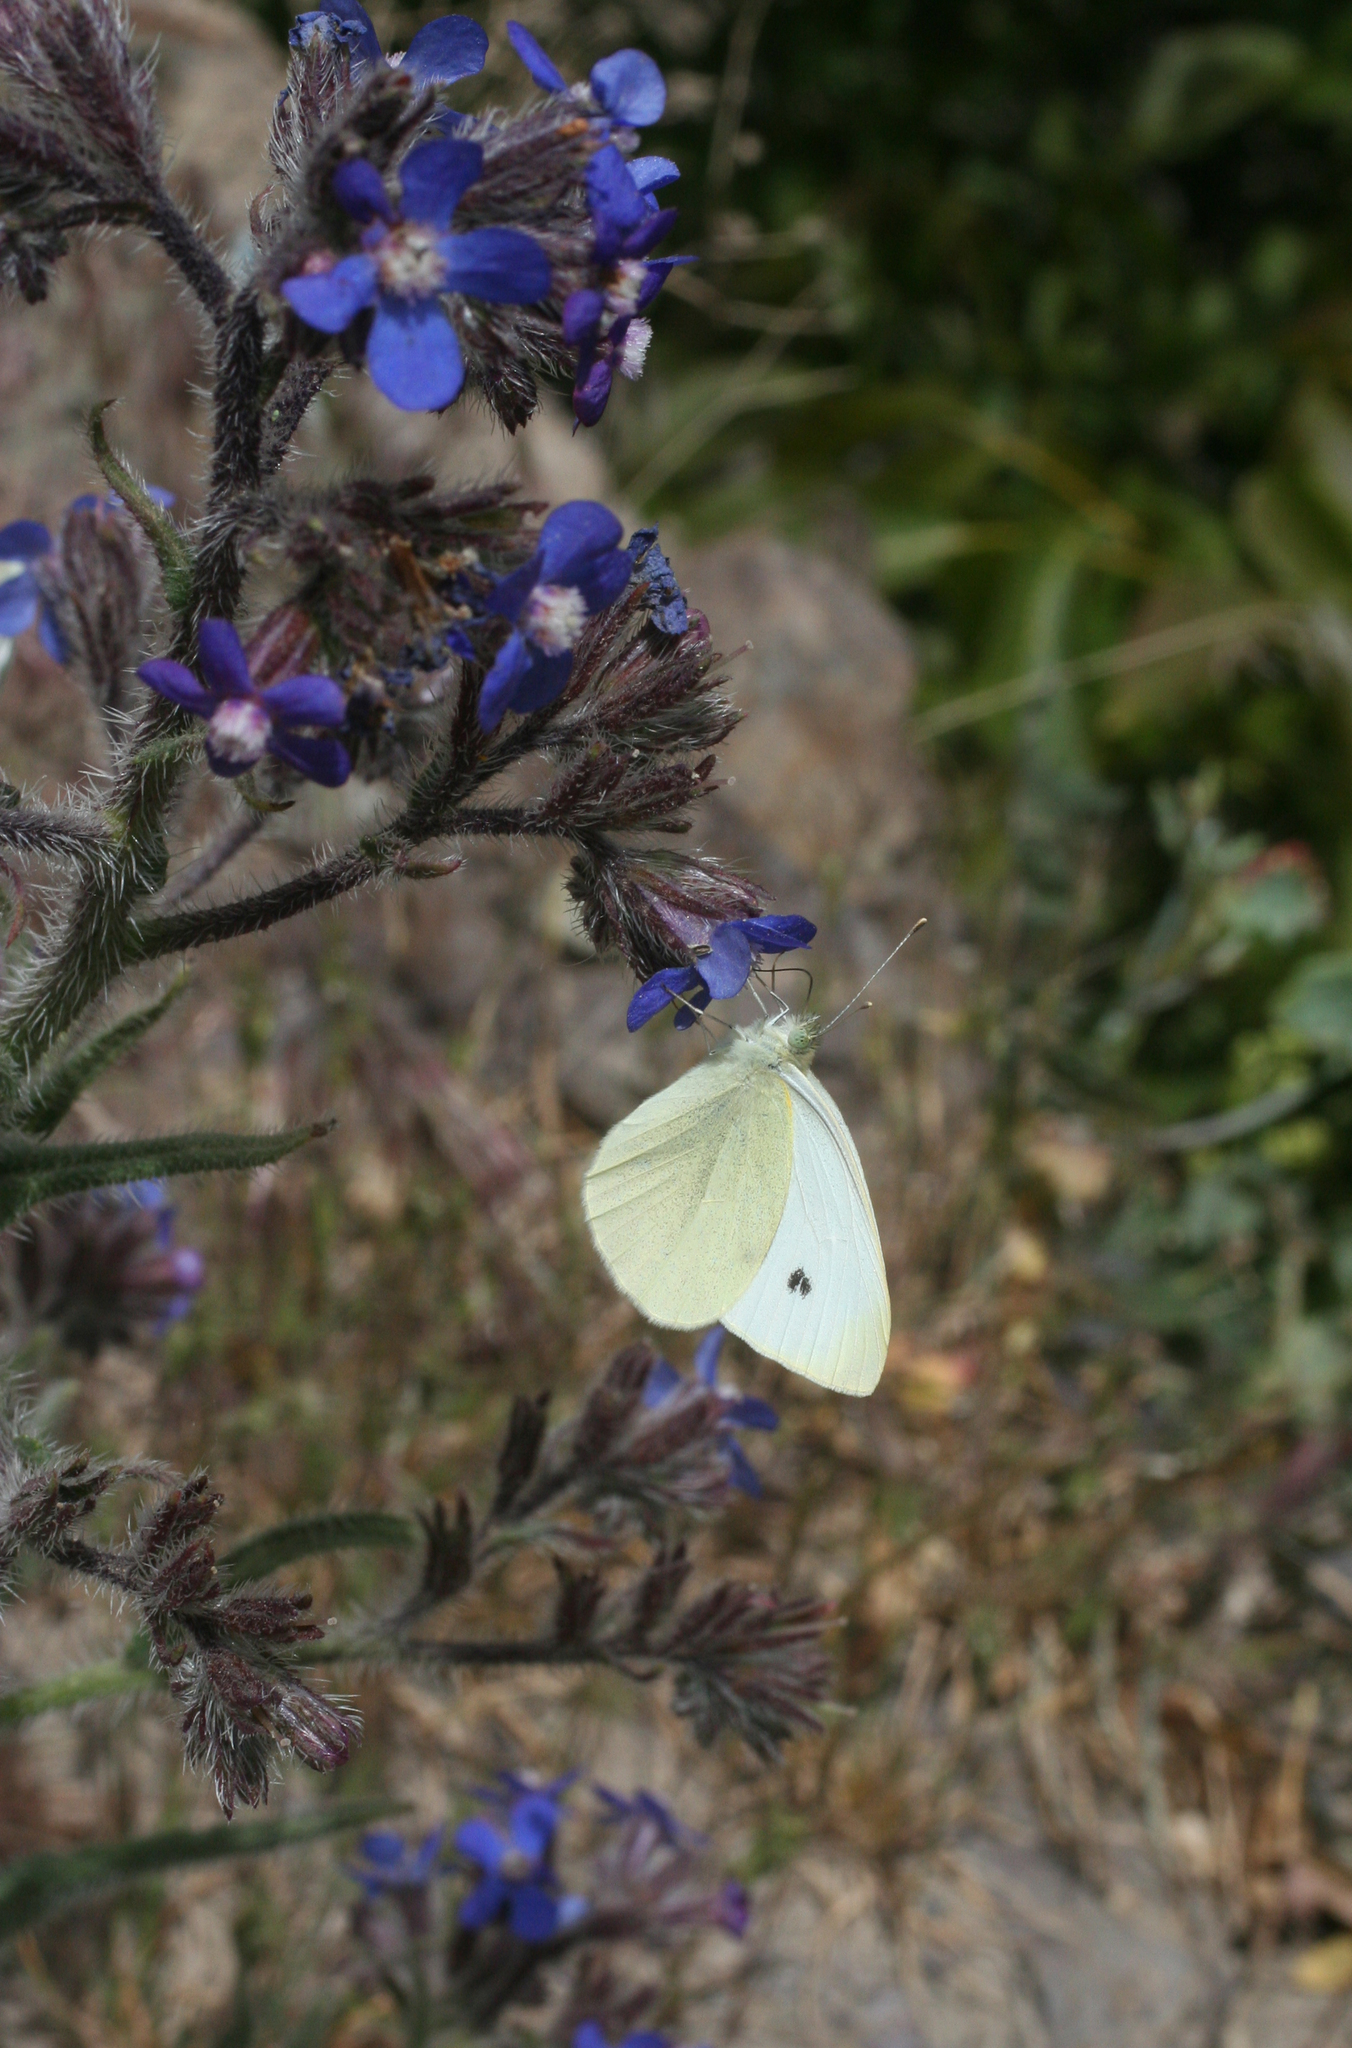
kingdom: Animalia
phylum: Arthropoda
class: Insecta
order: Lepidoptera
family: Pieridae
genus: Pieris
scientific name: Pieris rapae
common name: Small white
